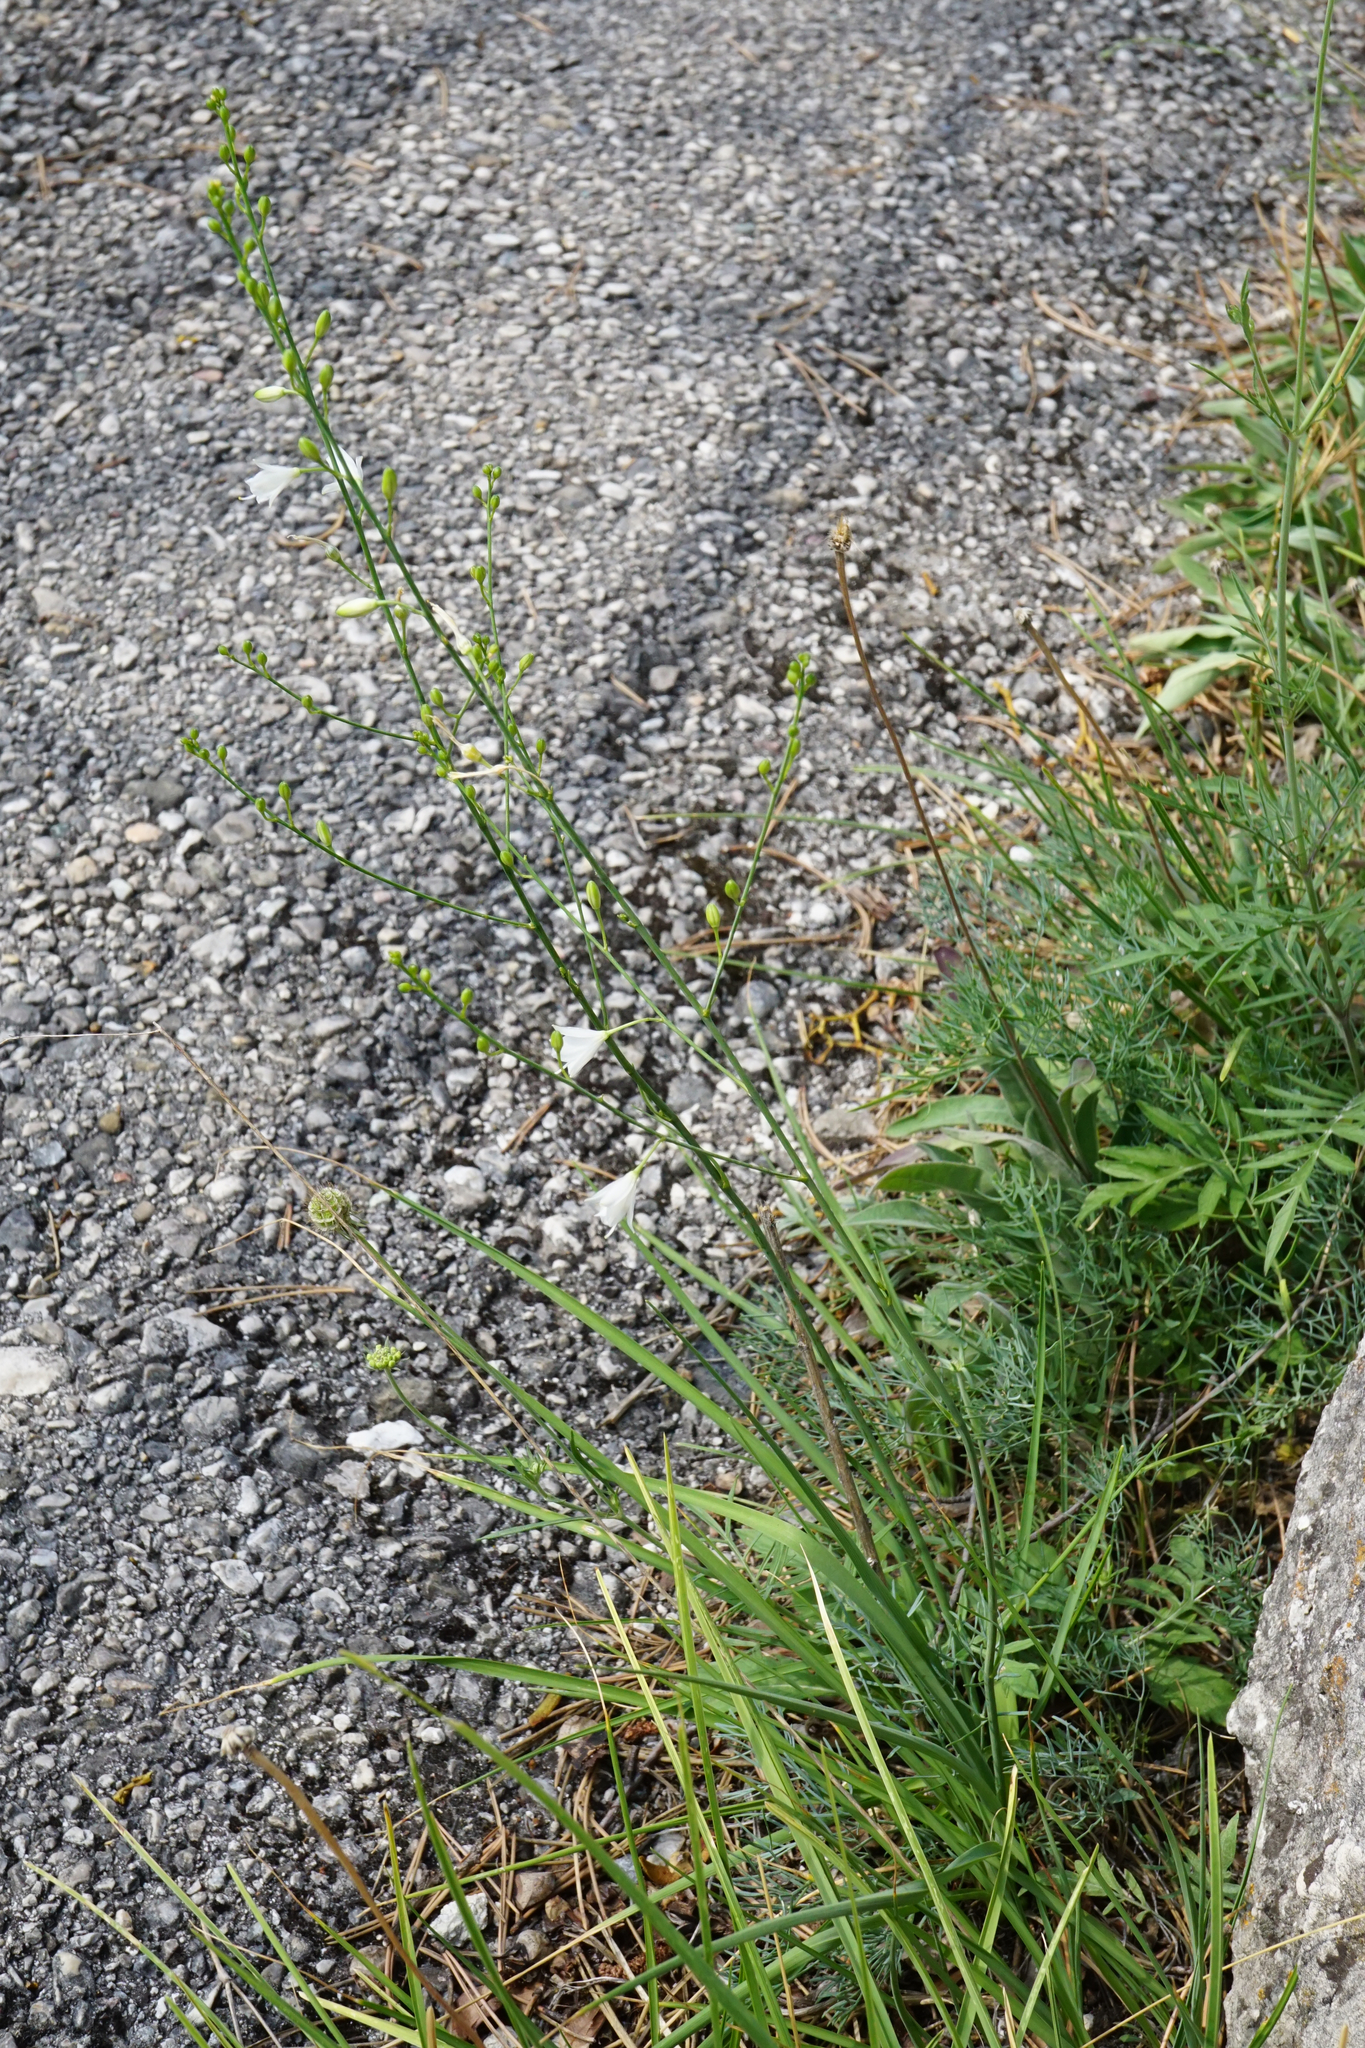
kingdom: Plantae
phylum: Tracheophyta
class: Liliopsida
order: Asparagales
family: Asparagaceae
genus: Anthericum
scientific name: Anthericum ramosum
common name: Branched st. bernard's-lily
